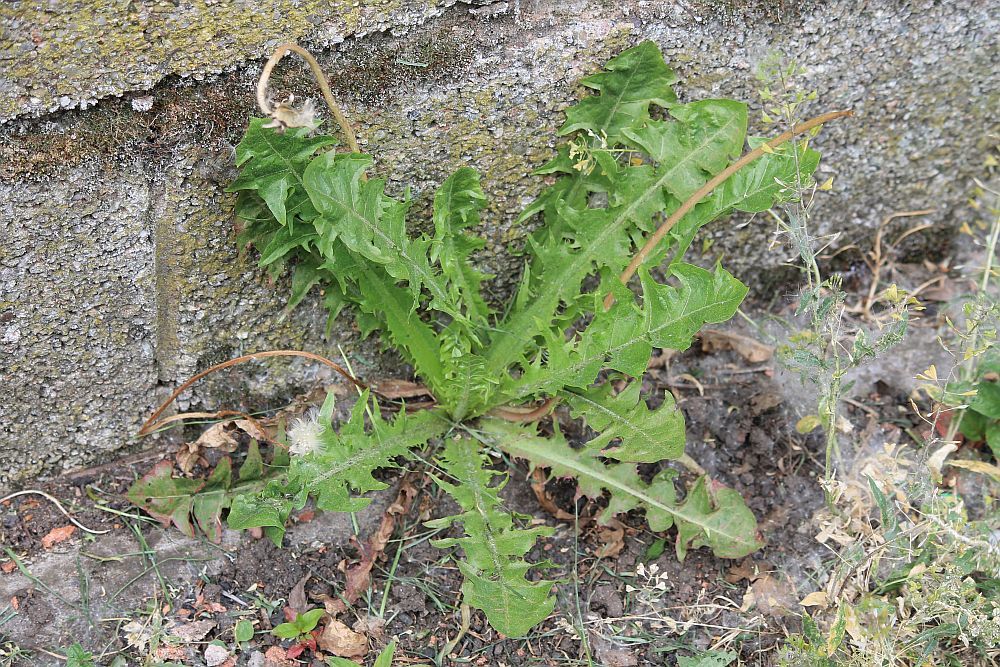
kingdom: Plantae
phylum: Tracheophyta
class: Magnoliopsida
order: Asterales
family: Asteraceae
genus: Taraxacum
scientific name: Taraxacum officinale
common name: Common dandelion
